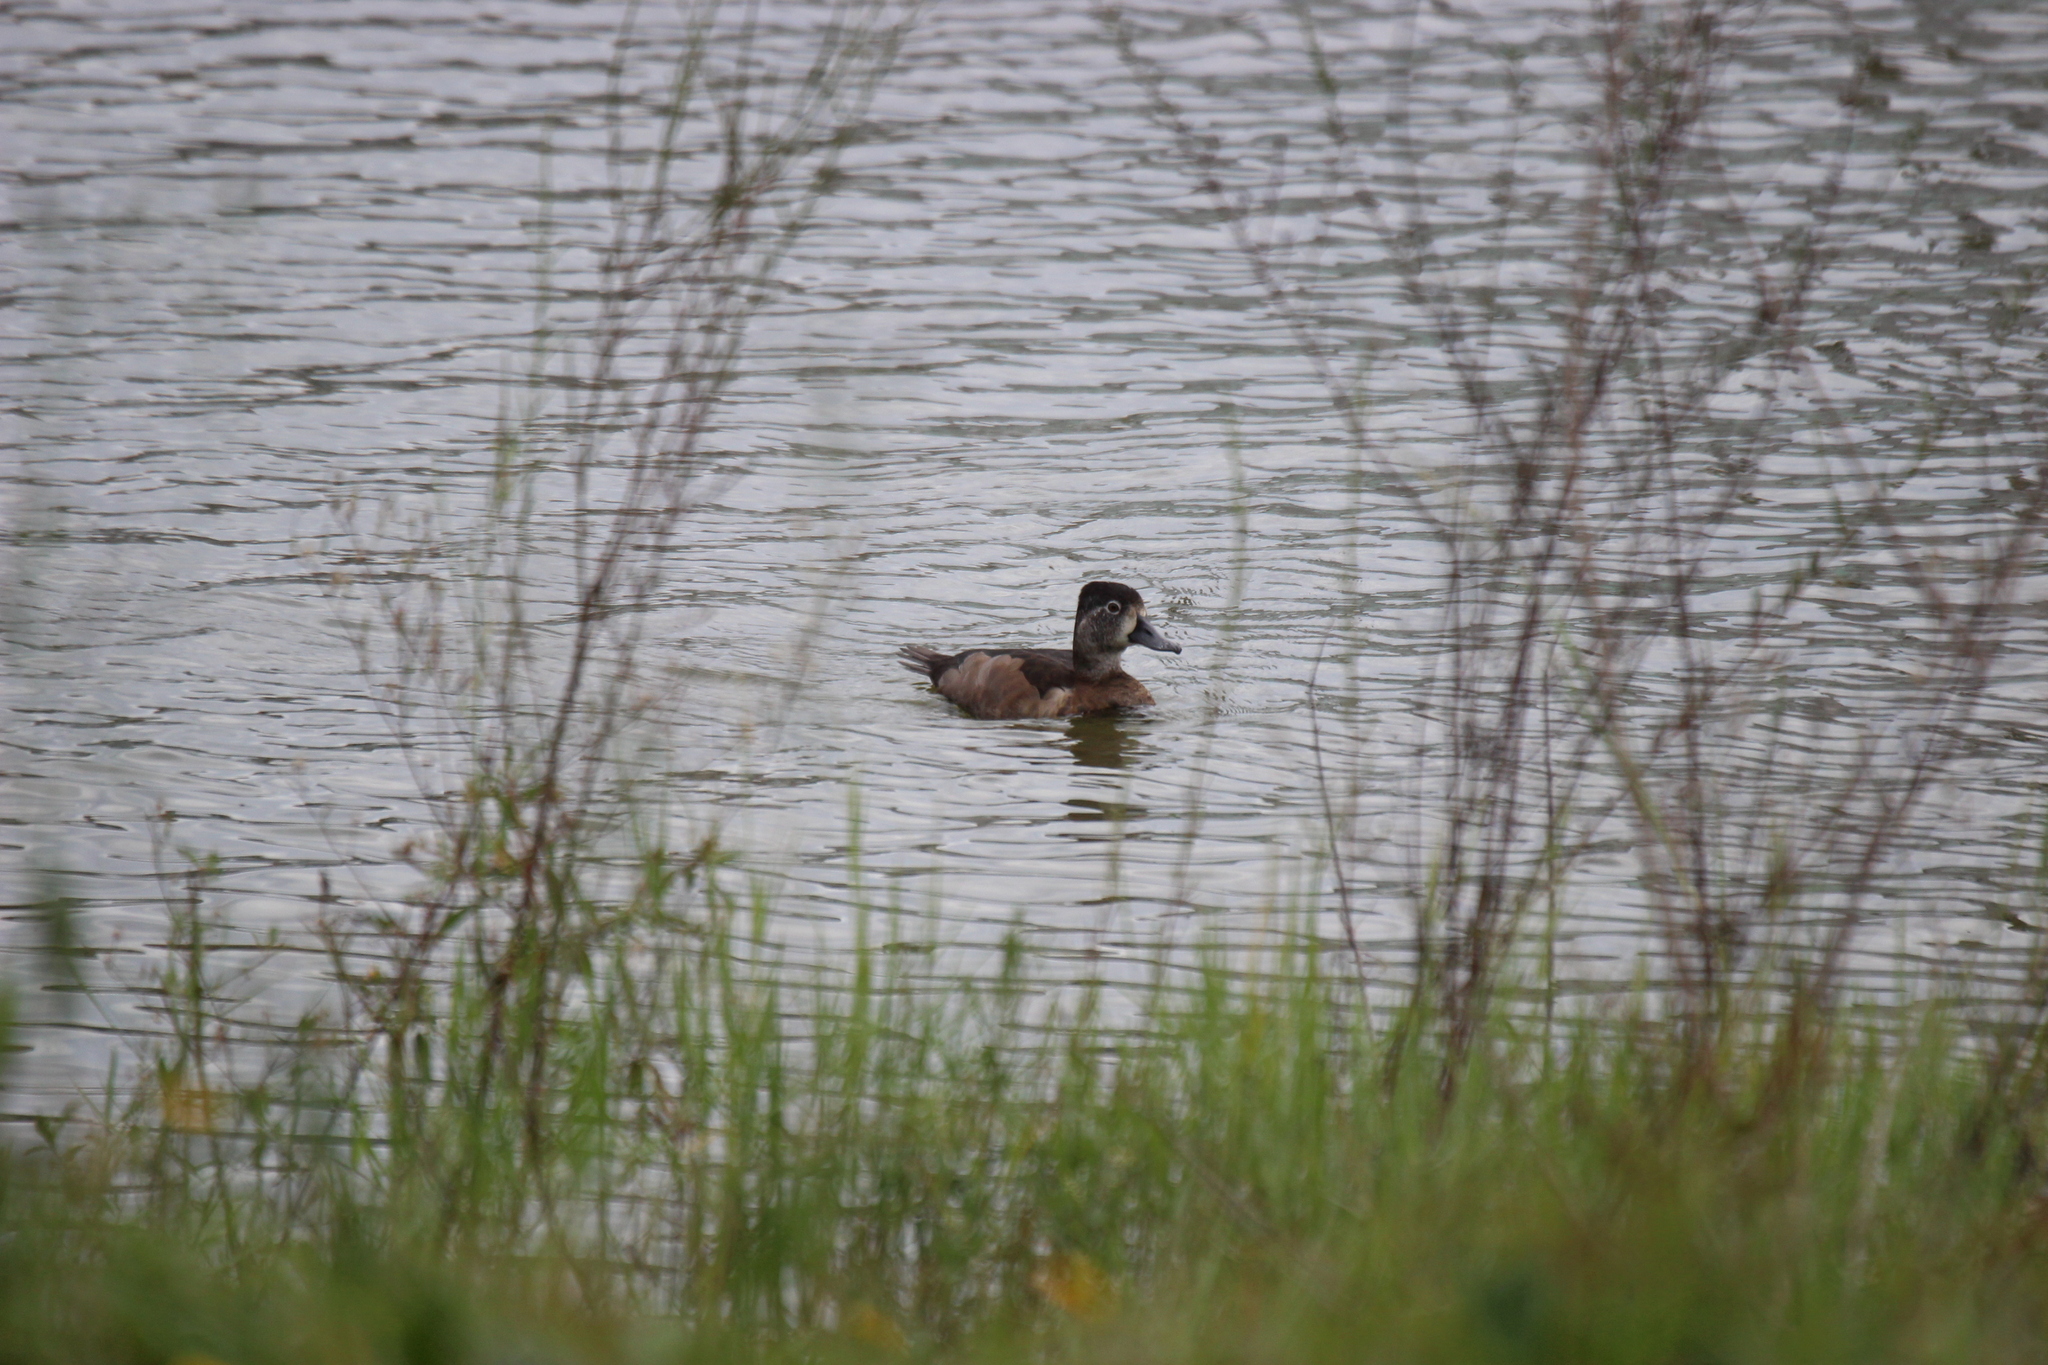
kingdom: Animalia
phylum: Chordata
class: Aves
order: Anseriformes
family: Anatidae
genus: Aythya
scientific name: Aythya collaris
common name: Ring-necked duck
